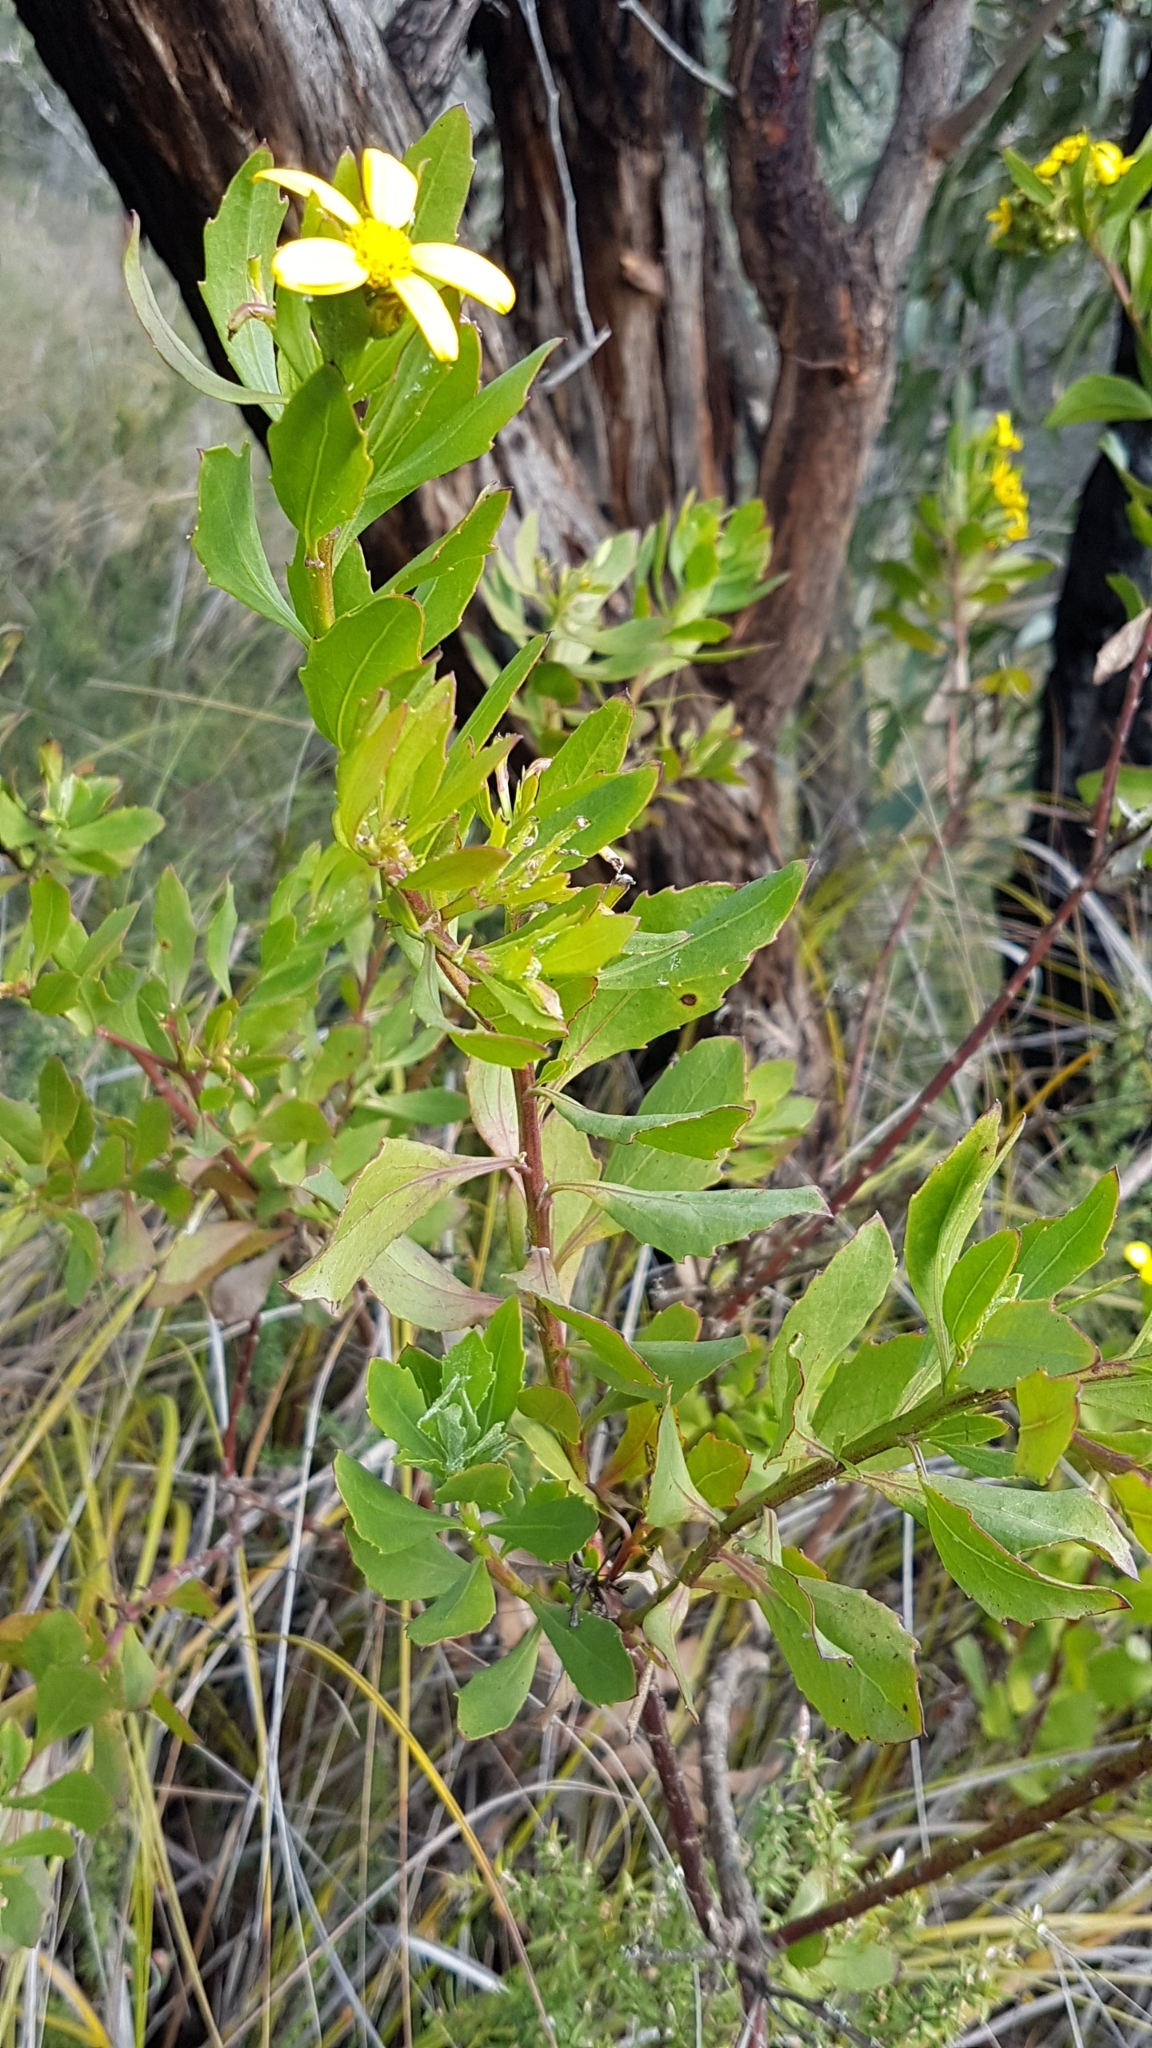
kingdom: Plantae
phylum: Tracheophyta
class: Magnoliopsida
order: Asterales
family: Asteraceae
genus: Osteospermum
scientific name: Osteospermum moniliferum
